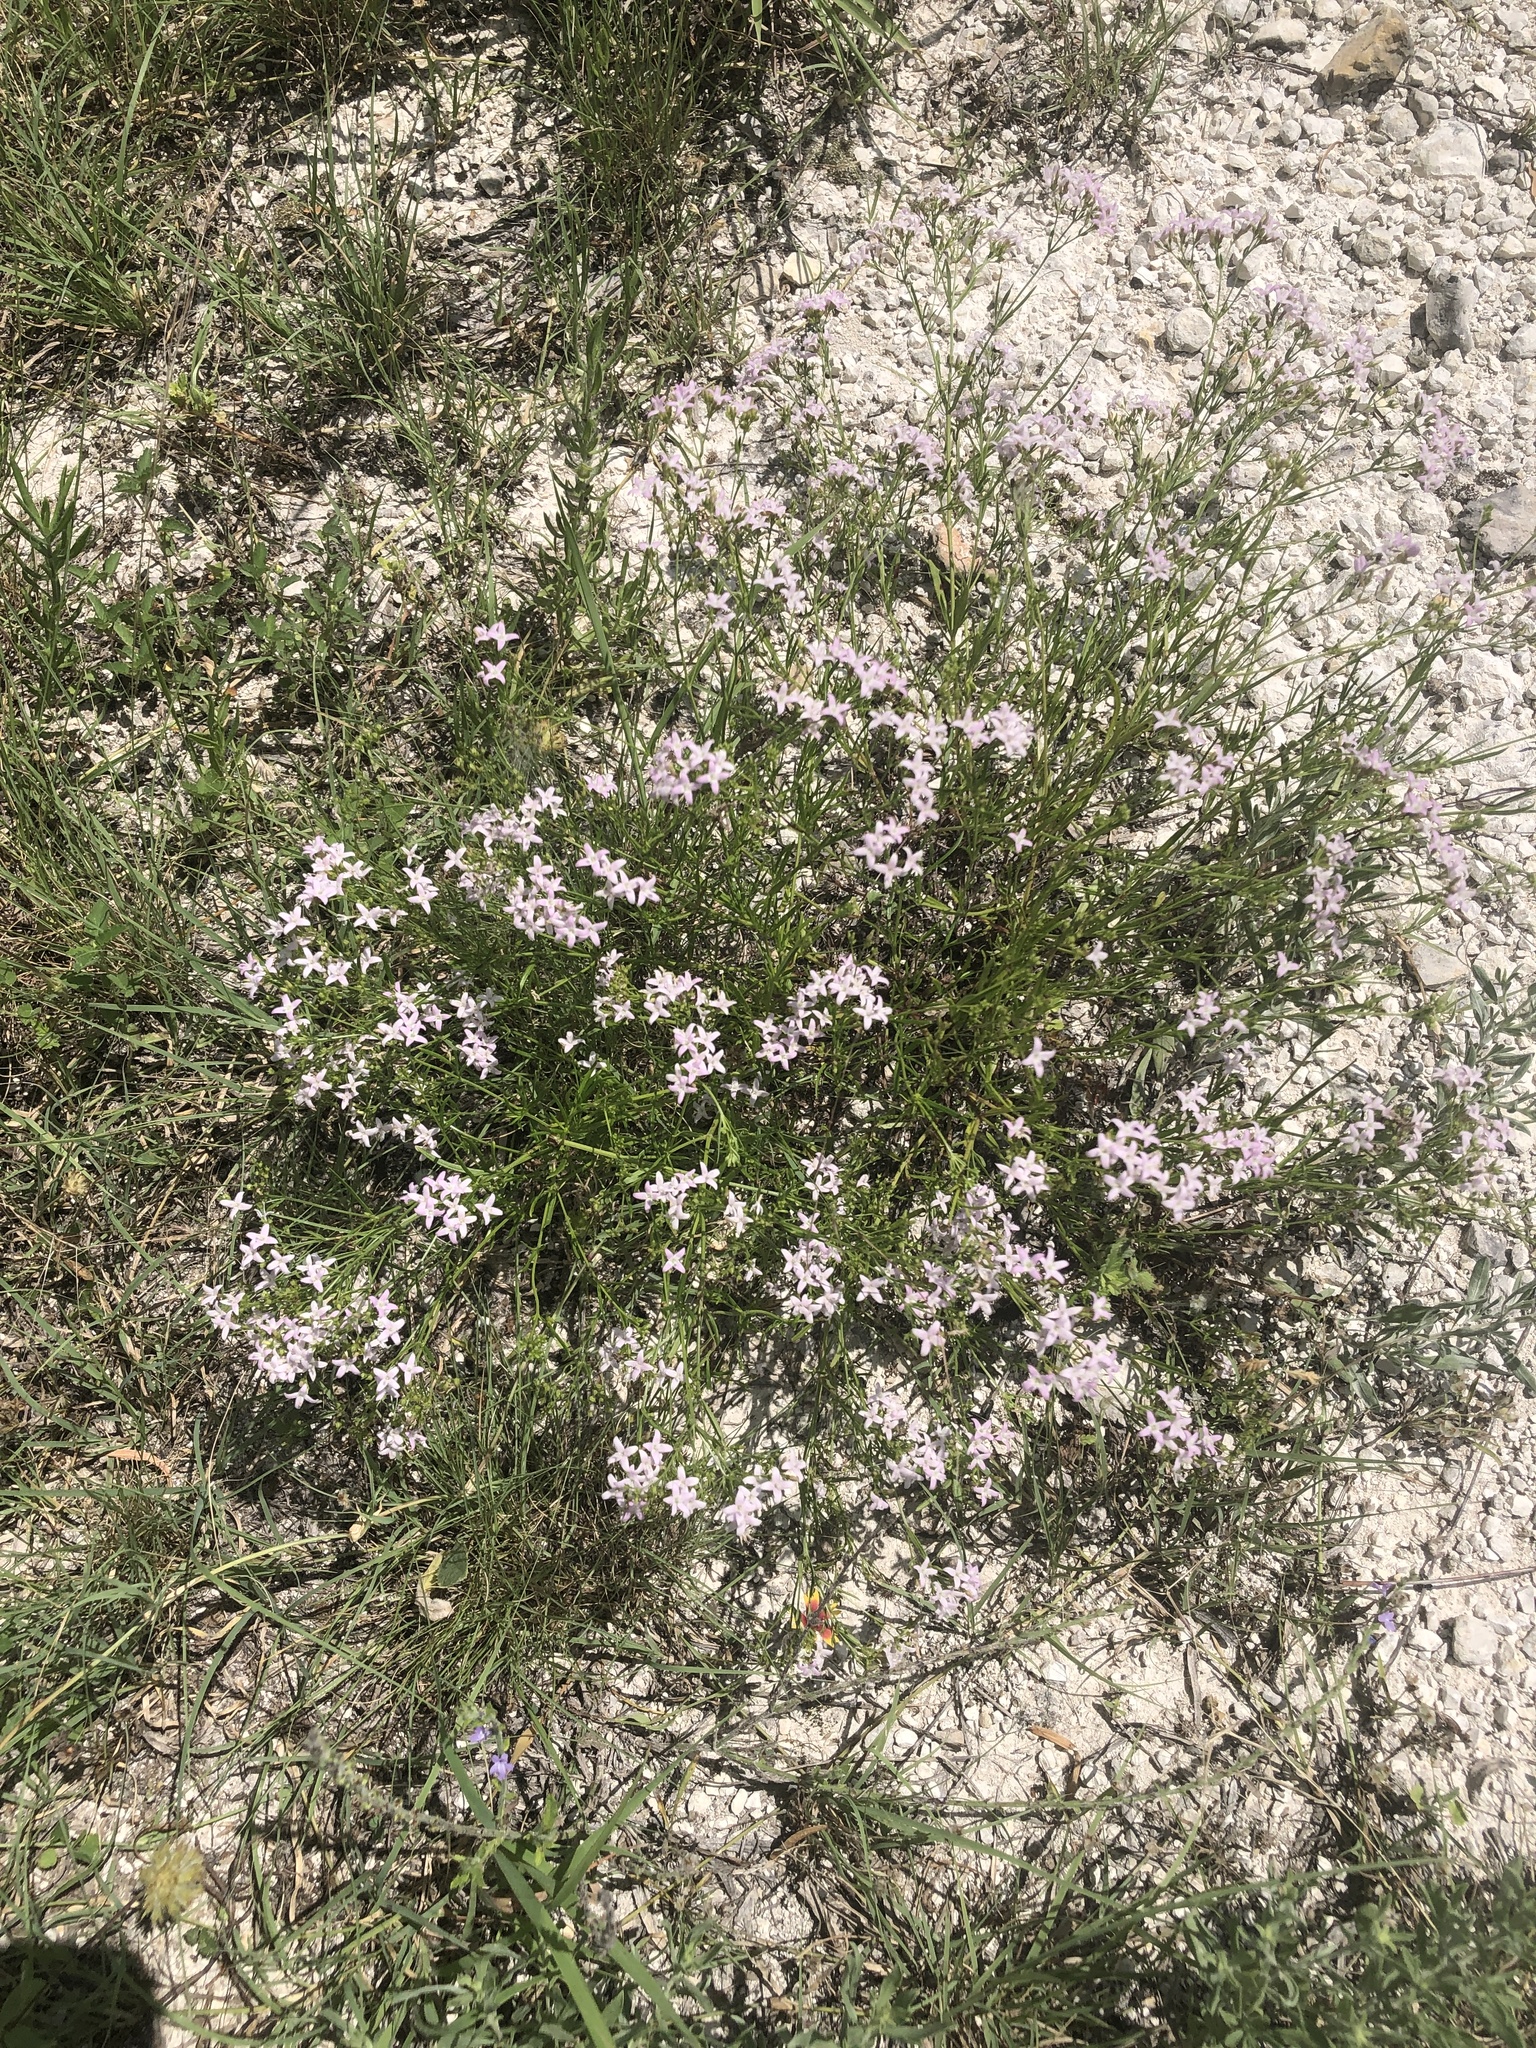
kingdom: Plantae
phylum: Tracheophyta
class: Magnoliopsida
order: Gentianales
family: Rubiaceae
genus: Stenaria
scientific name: Stenaria nigricans
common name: Diamondflowers
